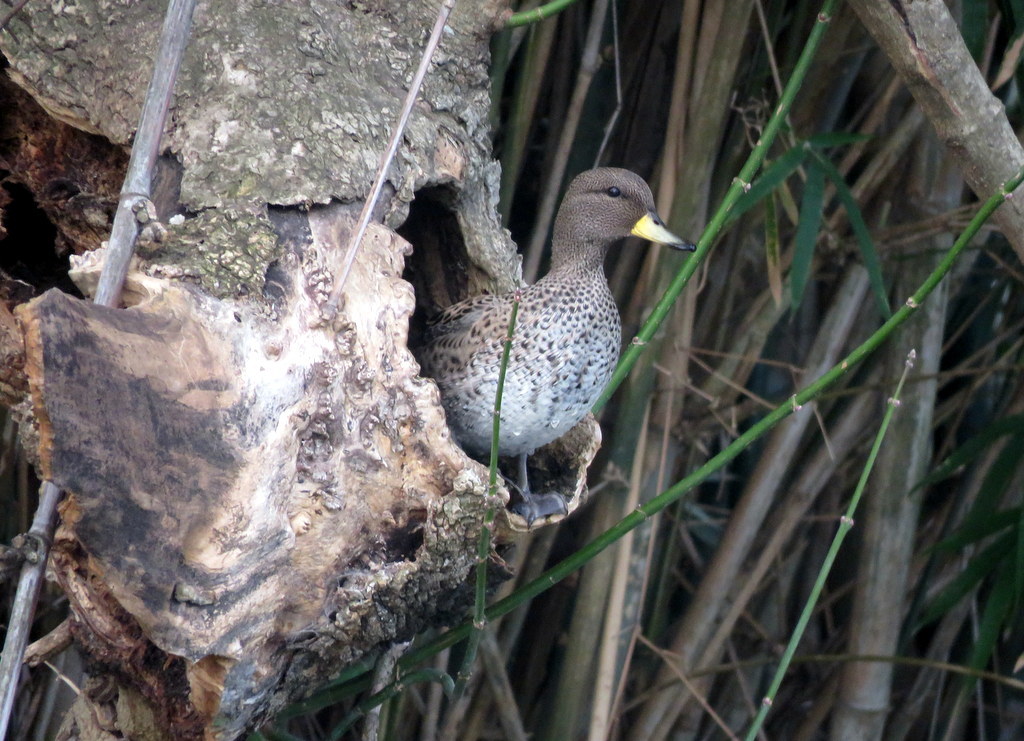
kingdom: Animalia
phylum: Chordata
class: Aves
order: Anseriformes
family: Anatidae
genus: Anas
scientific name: Anas flavirostris
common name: Yellow-billed teal
